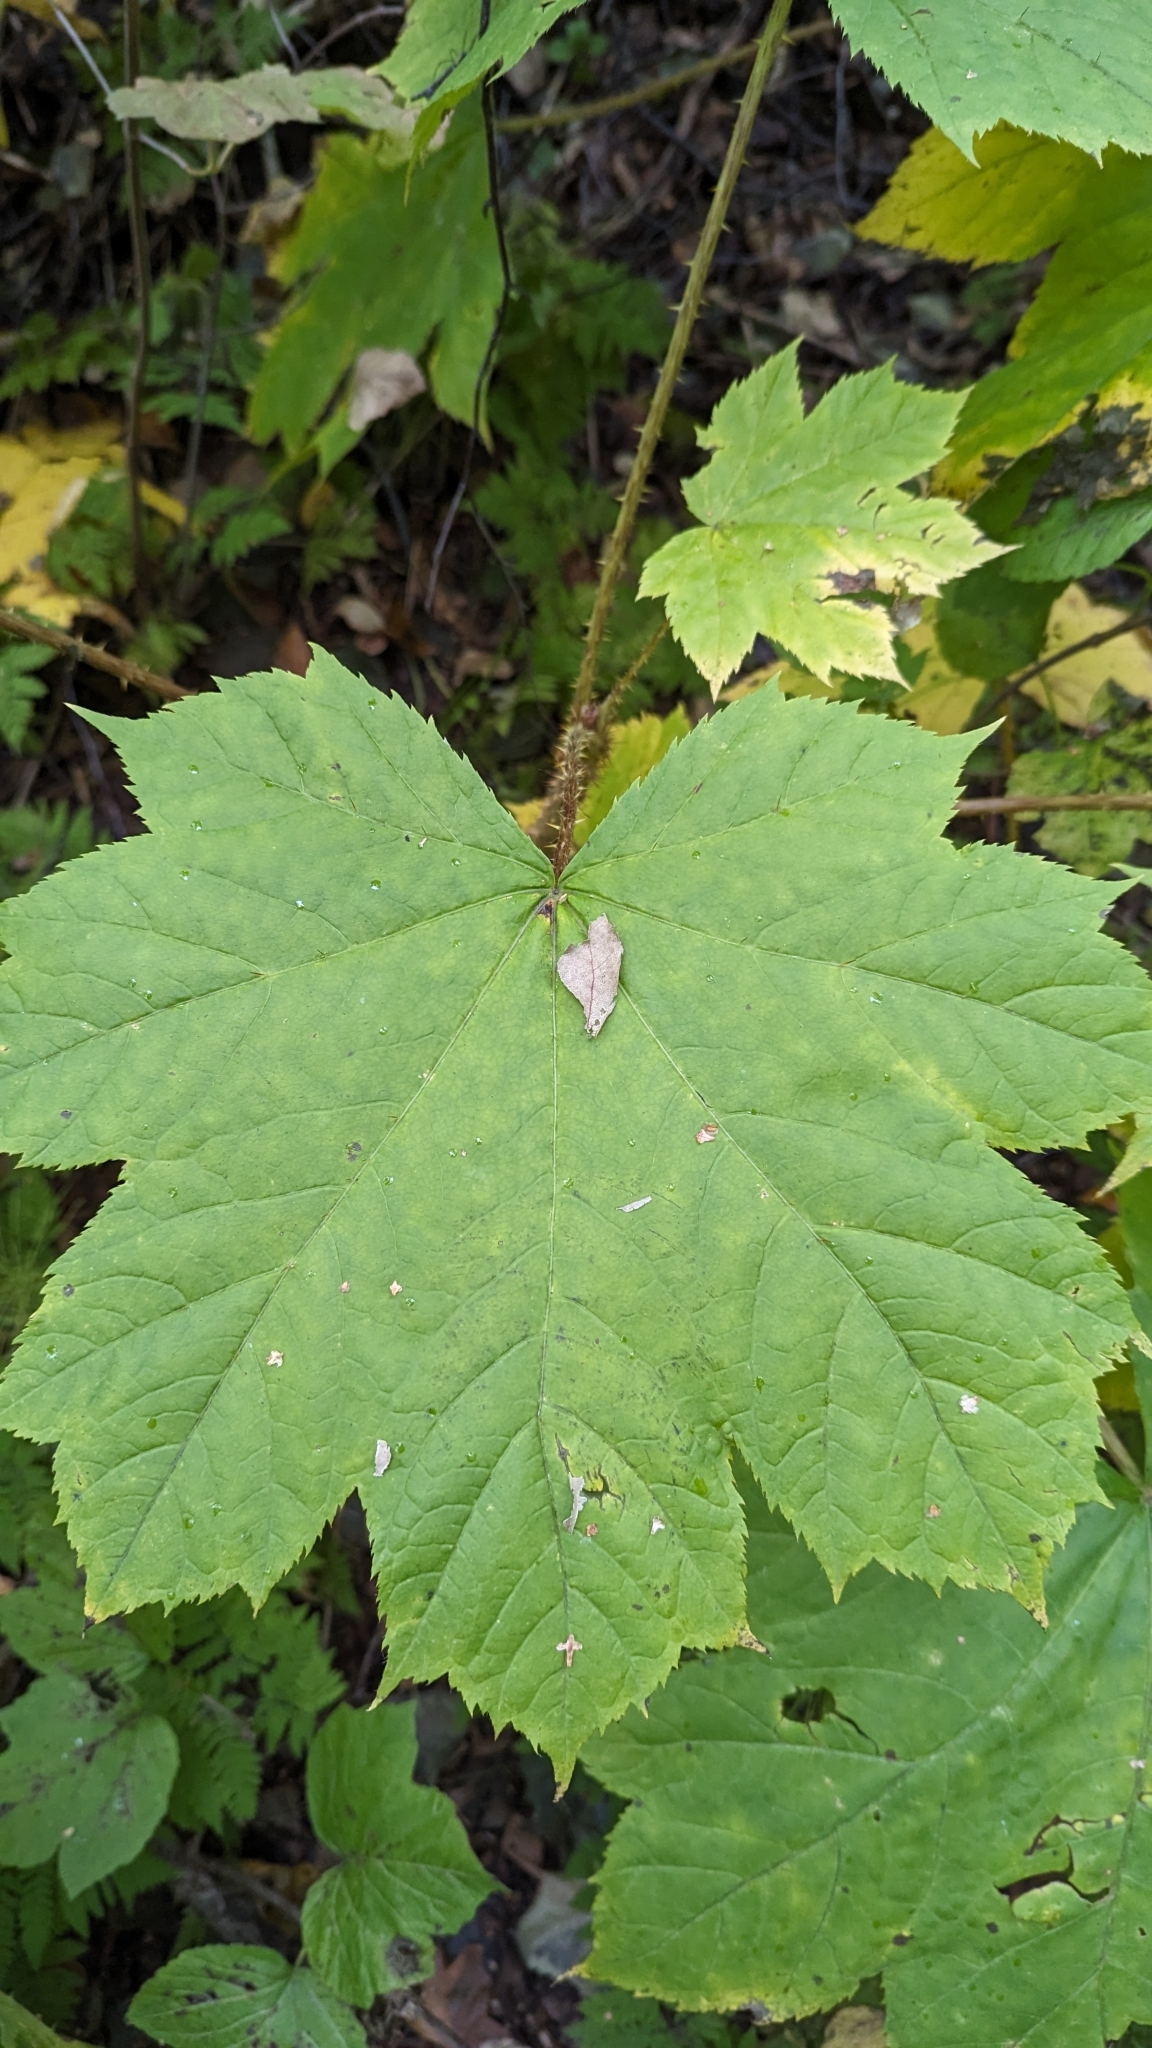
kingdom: Plantae
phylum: Tracheophyta
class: Magnoliopsida
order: Apiales
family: Araliaceae
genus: Oplopanax
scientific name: Oplopanax horridus
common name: Devil's walking-stick
